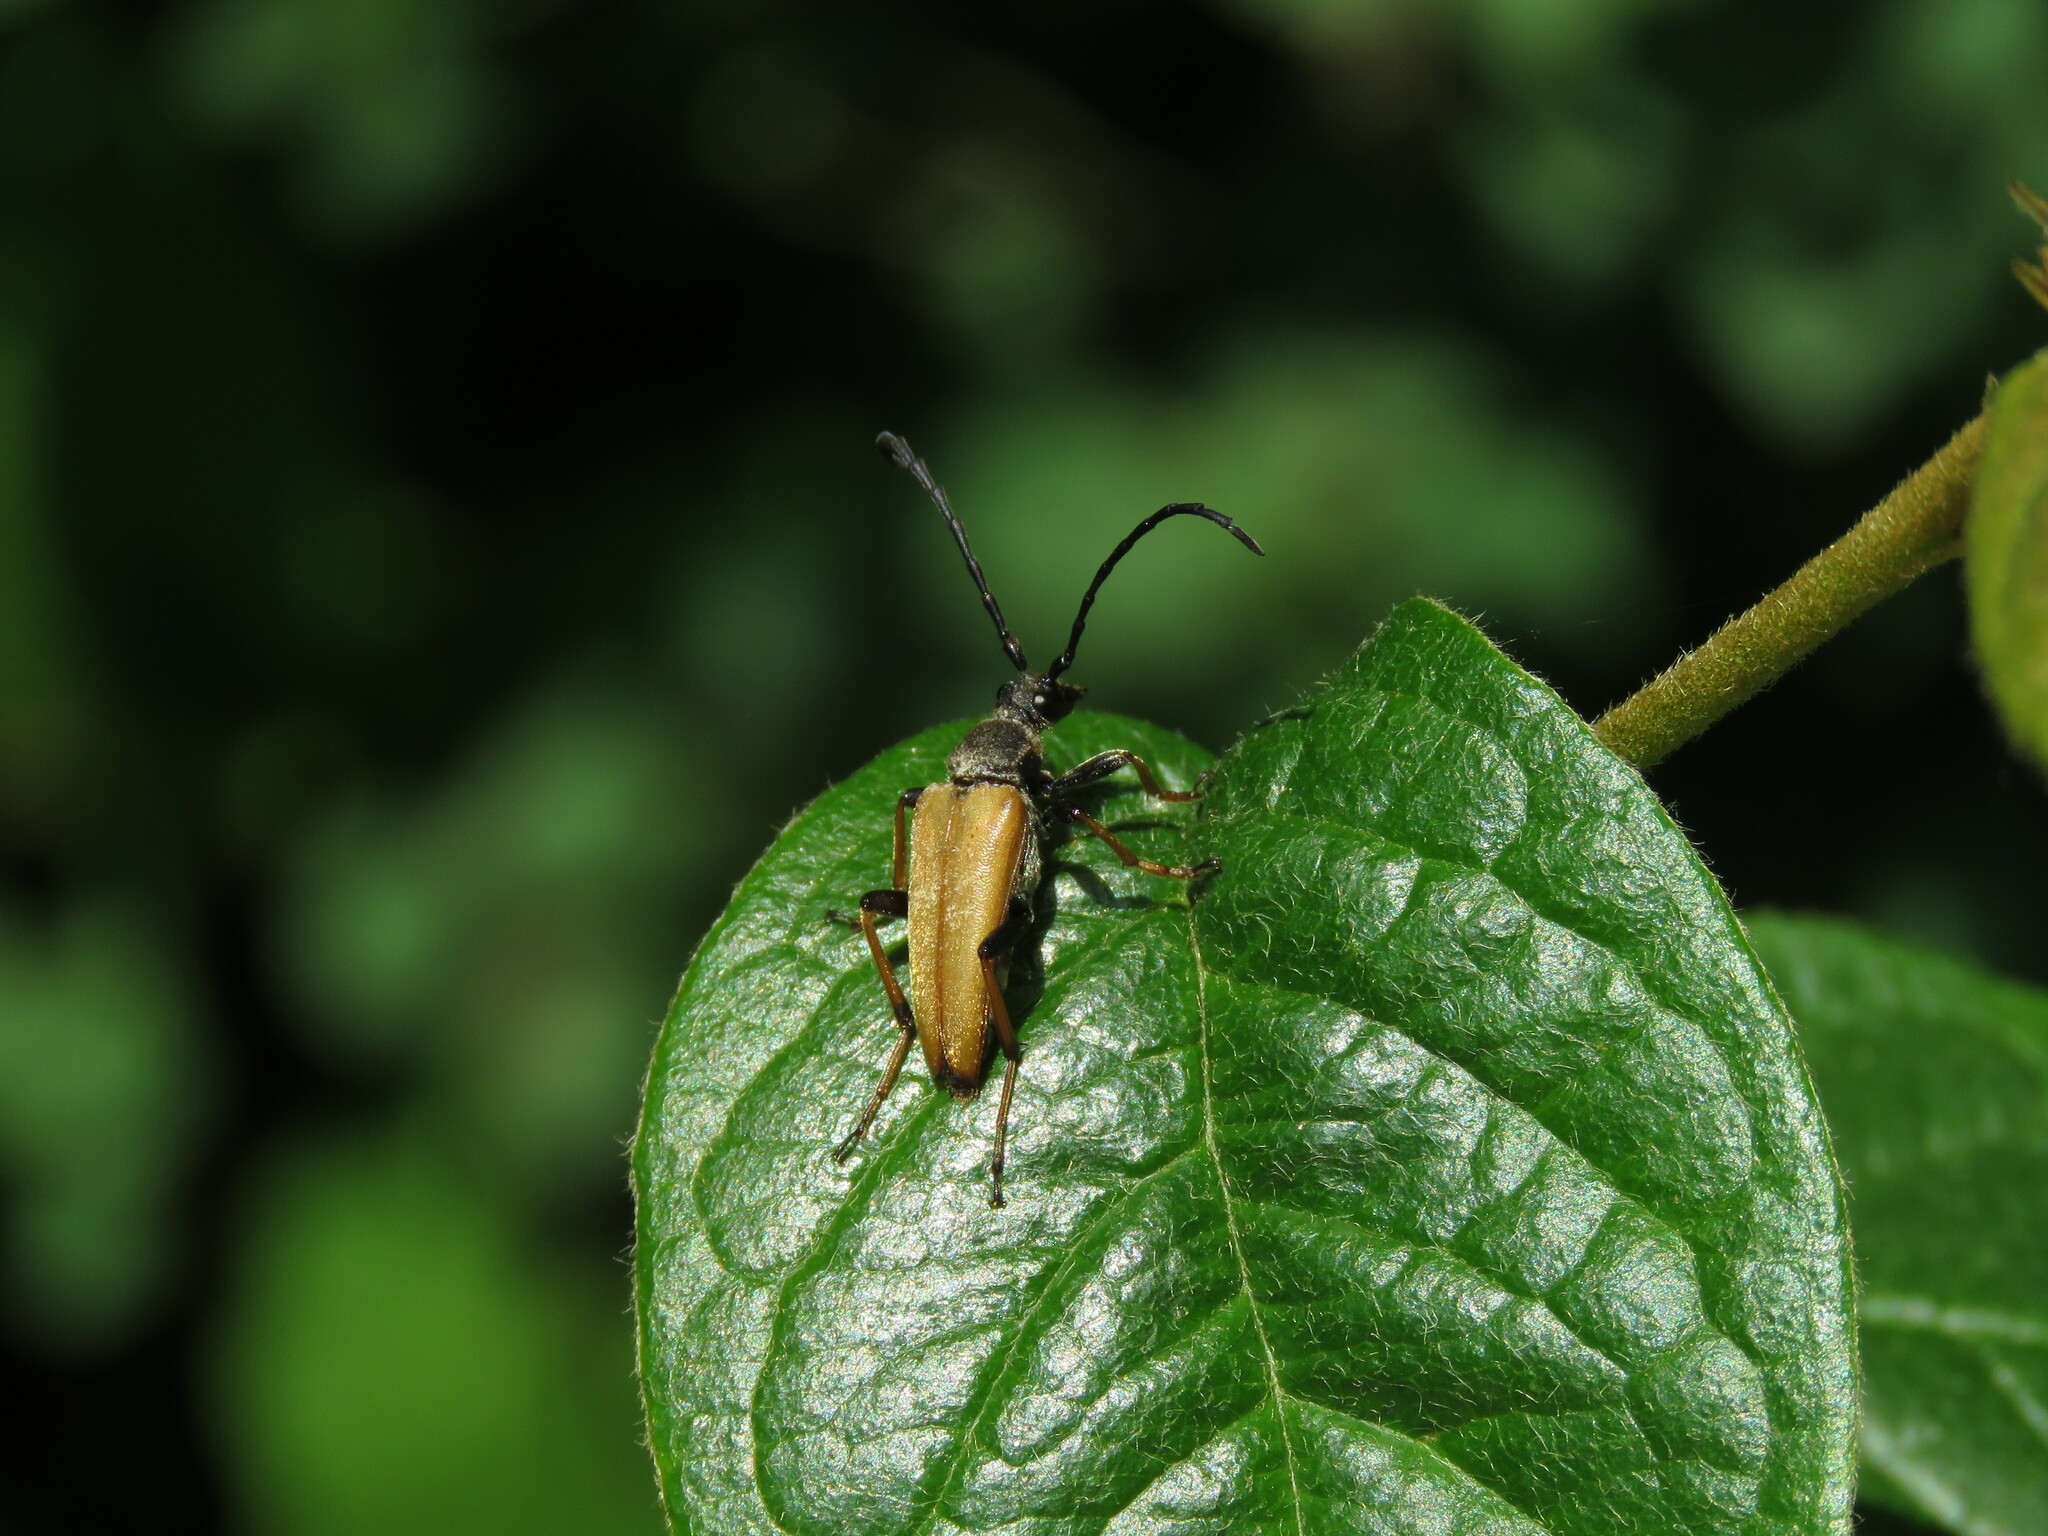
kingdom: Animalia
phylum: Arthropoda
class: Insecta
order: Coleoptera
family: Cerambycidae
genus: Stictoleptura
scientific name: Stictoleptura rubra
